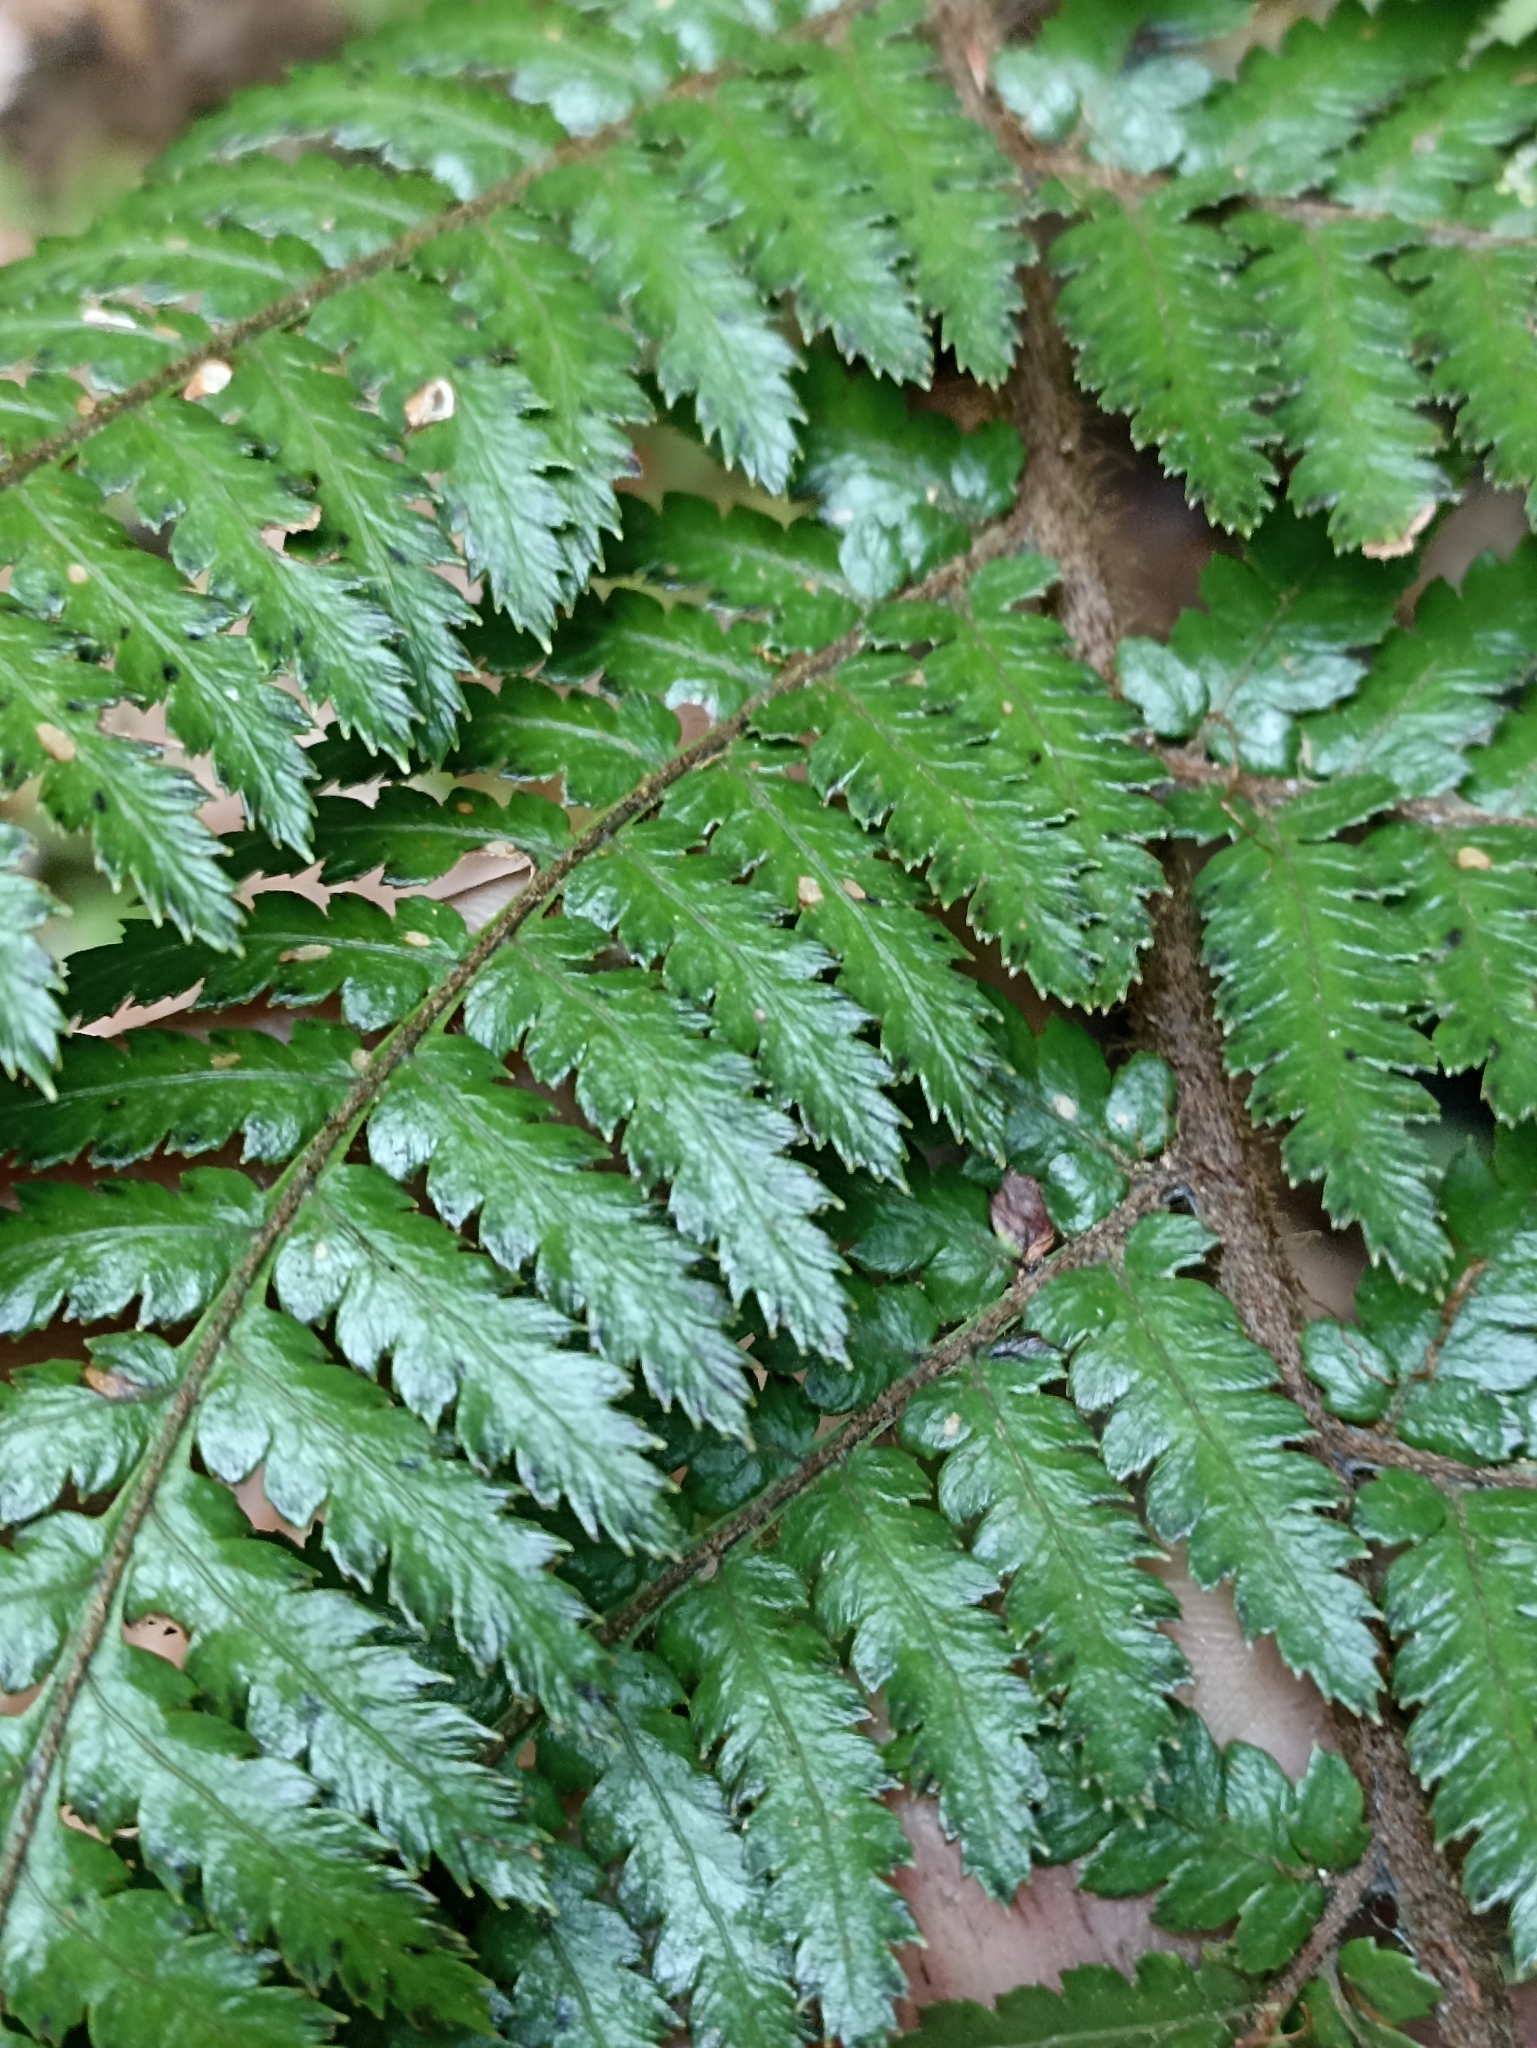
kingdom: Plantae
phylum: Tracheophyta
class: Polypodiopsida
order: Cyatheales
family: Dicksoniaceae
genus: Dicksonia
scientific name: Dicksonia squarrosa
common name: Hard treefern
